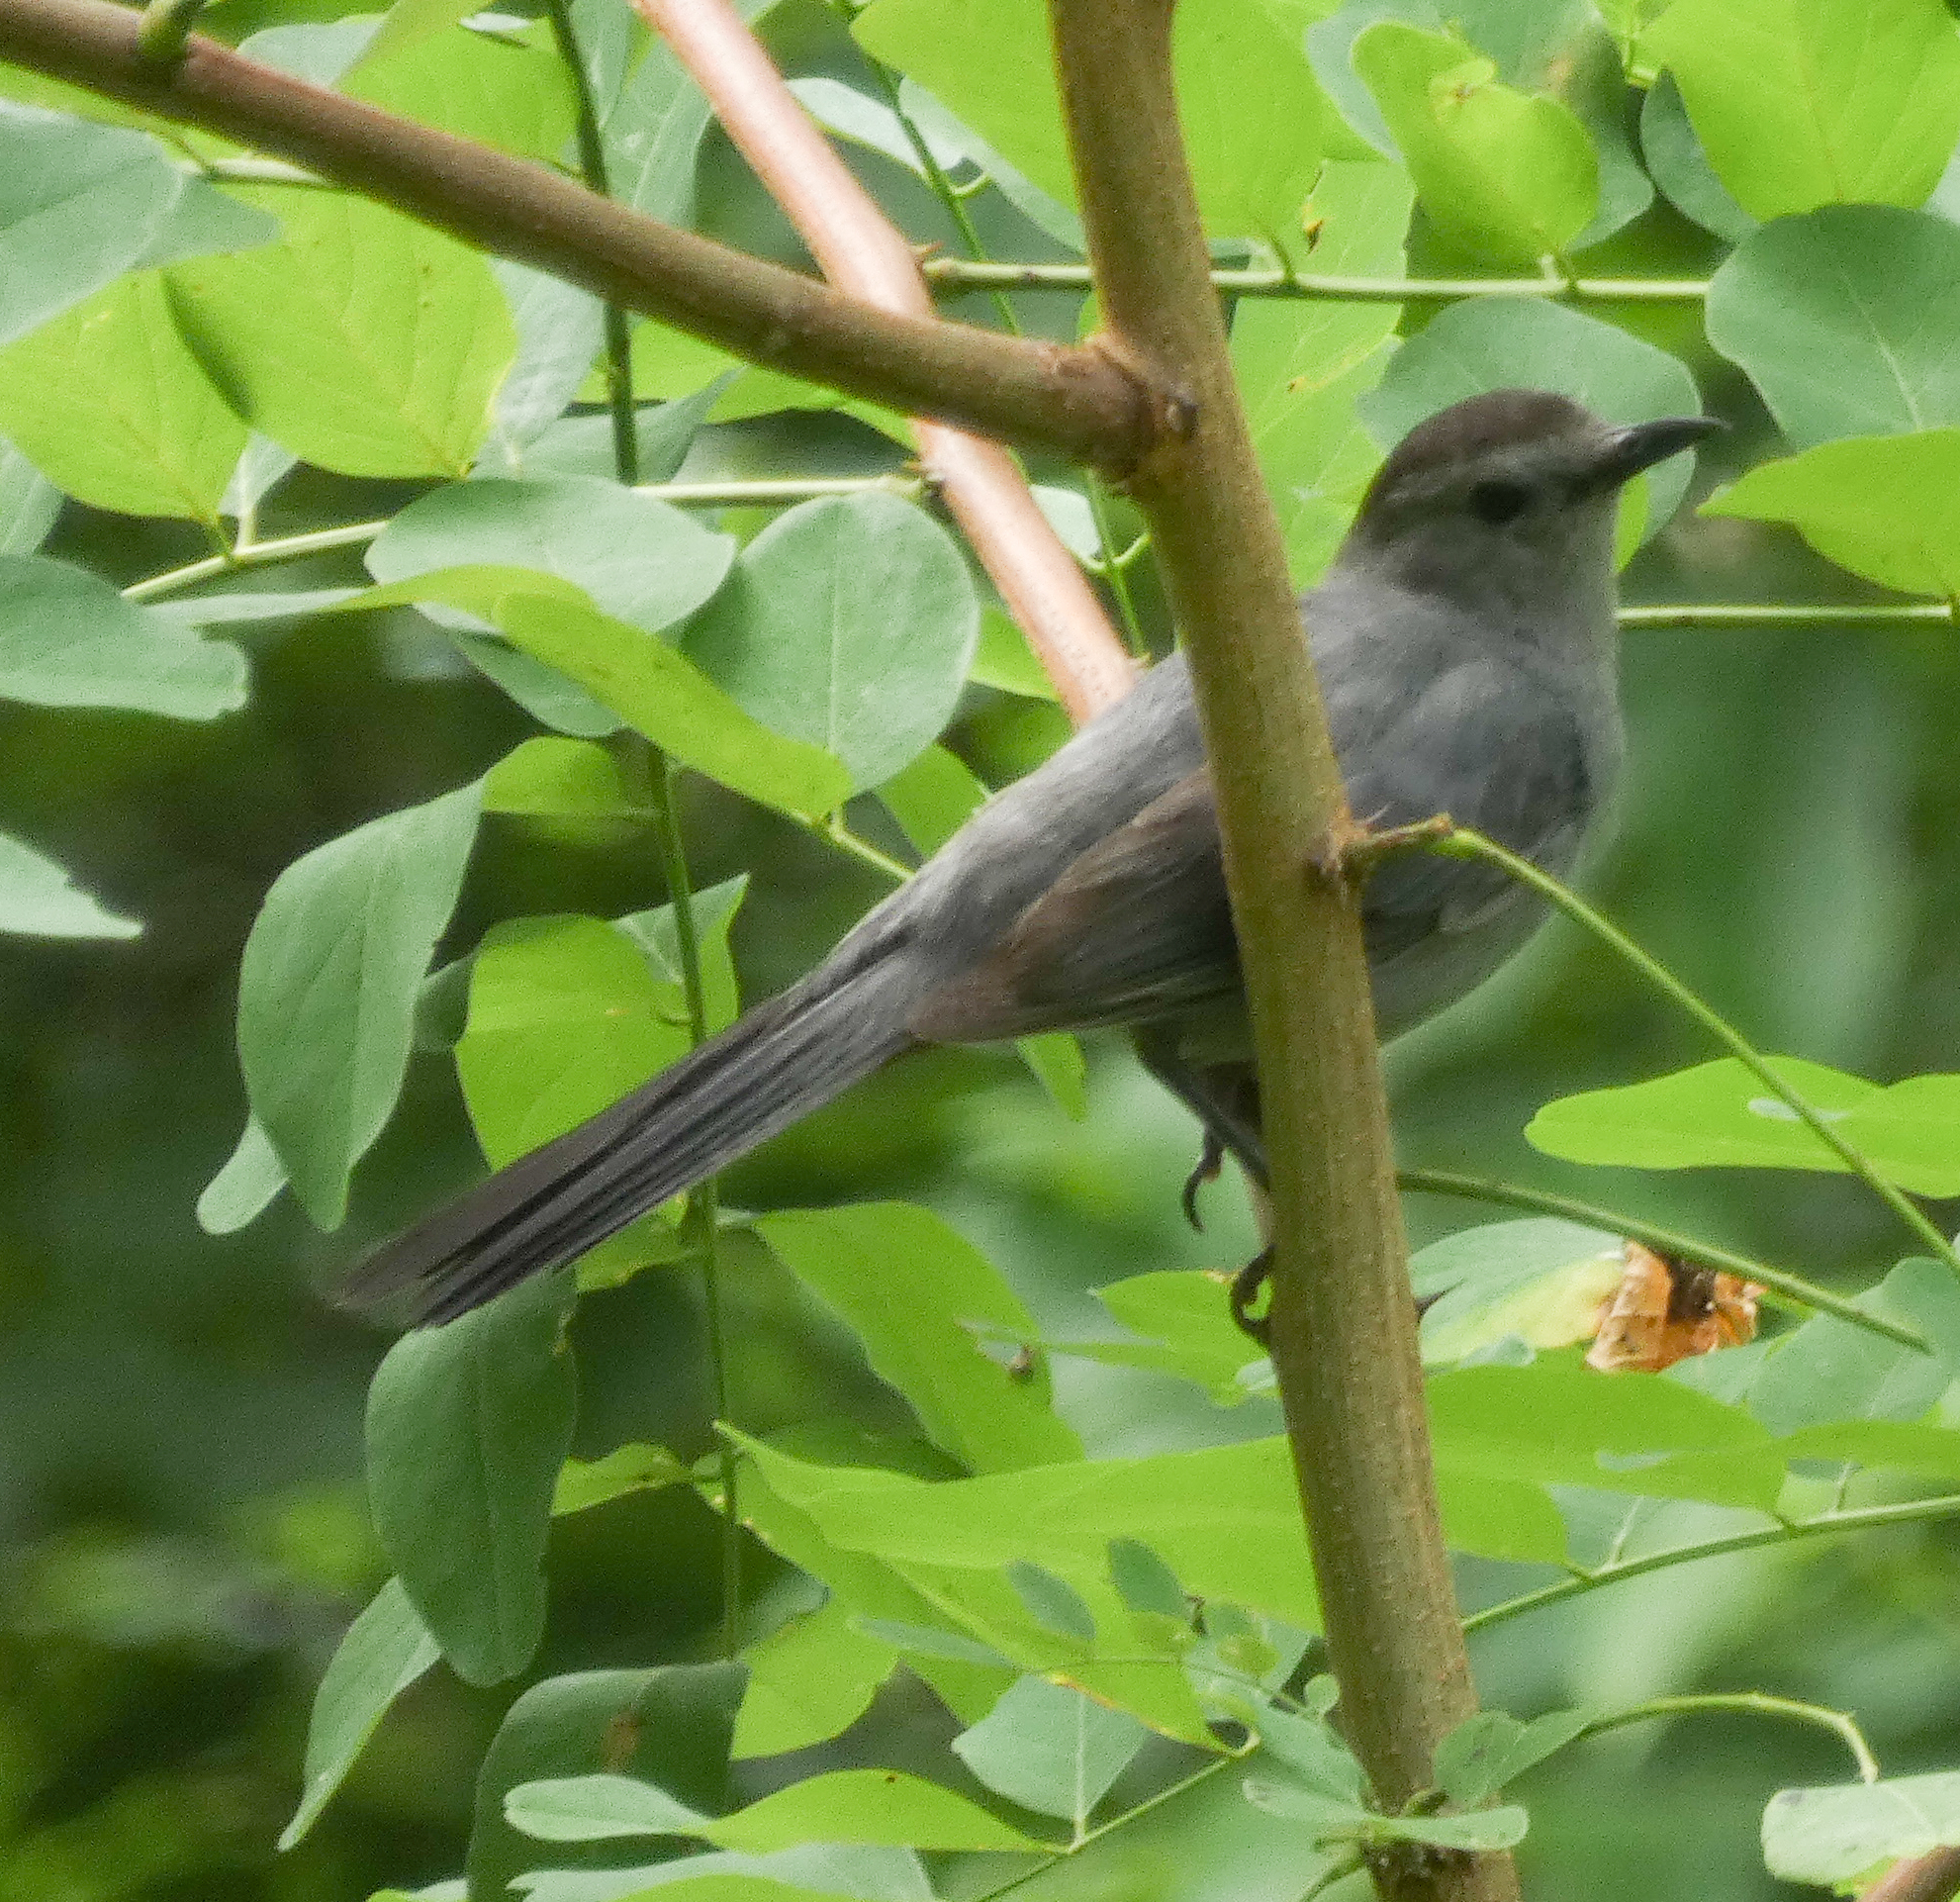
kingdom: Animalia
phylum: Chordata
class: Aves
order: Passeriformes
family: Mimidae
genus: Dumetella
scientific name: Dumetella carolinensis
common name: Gray catbird
